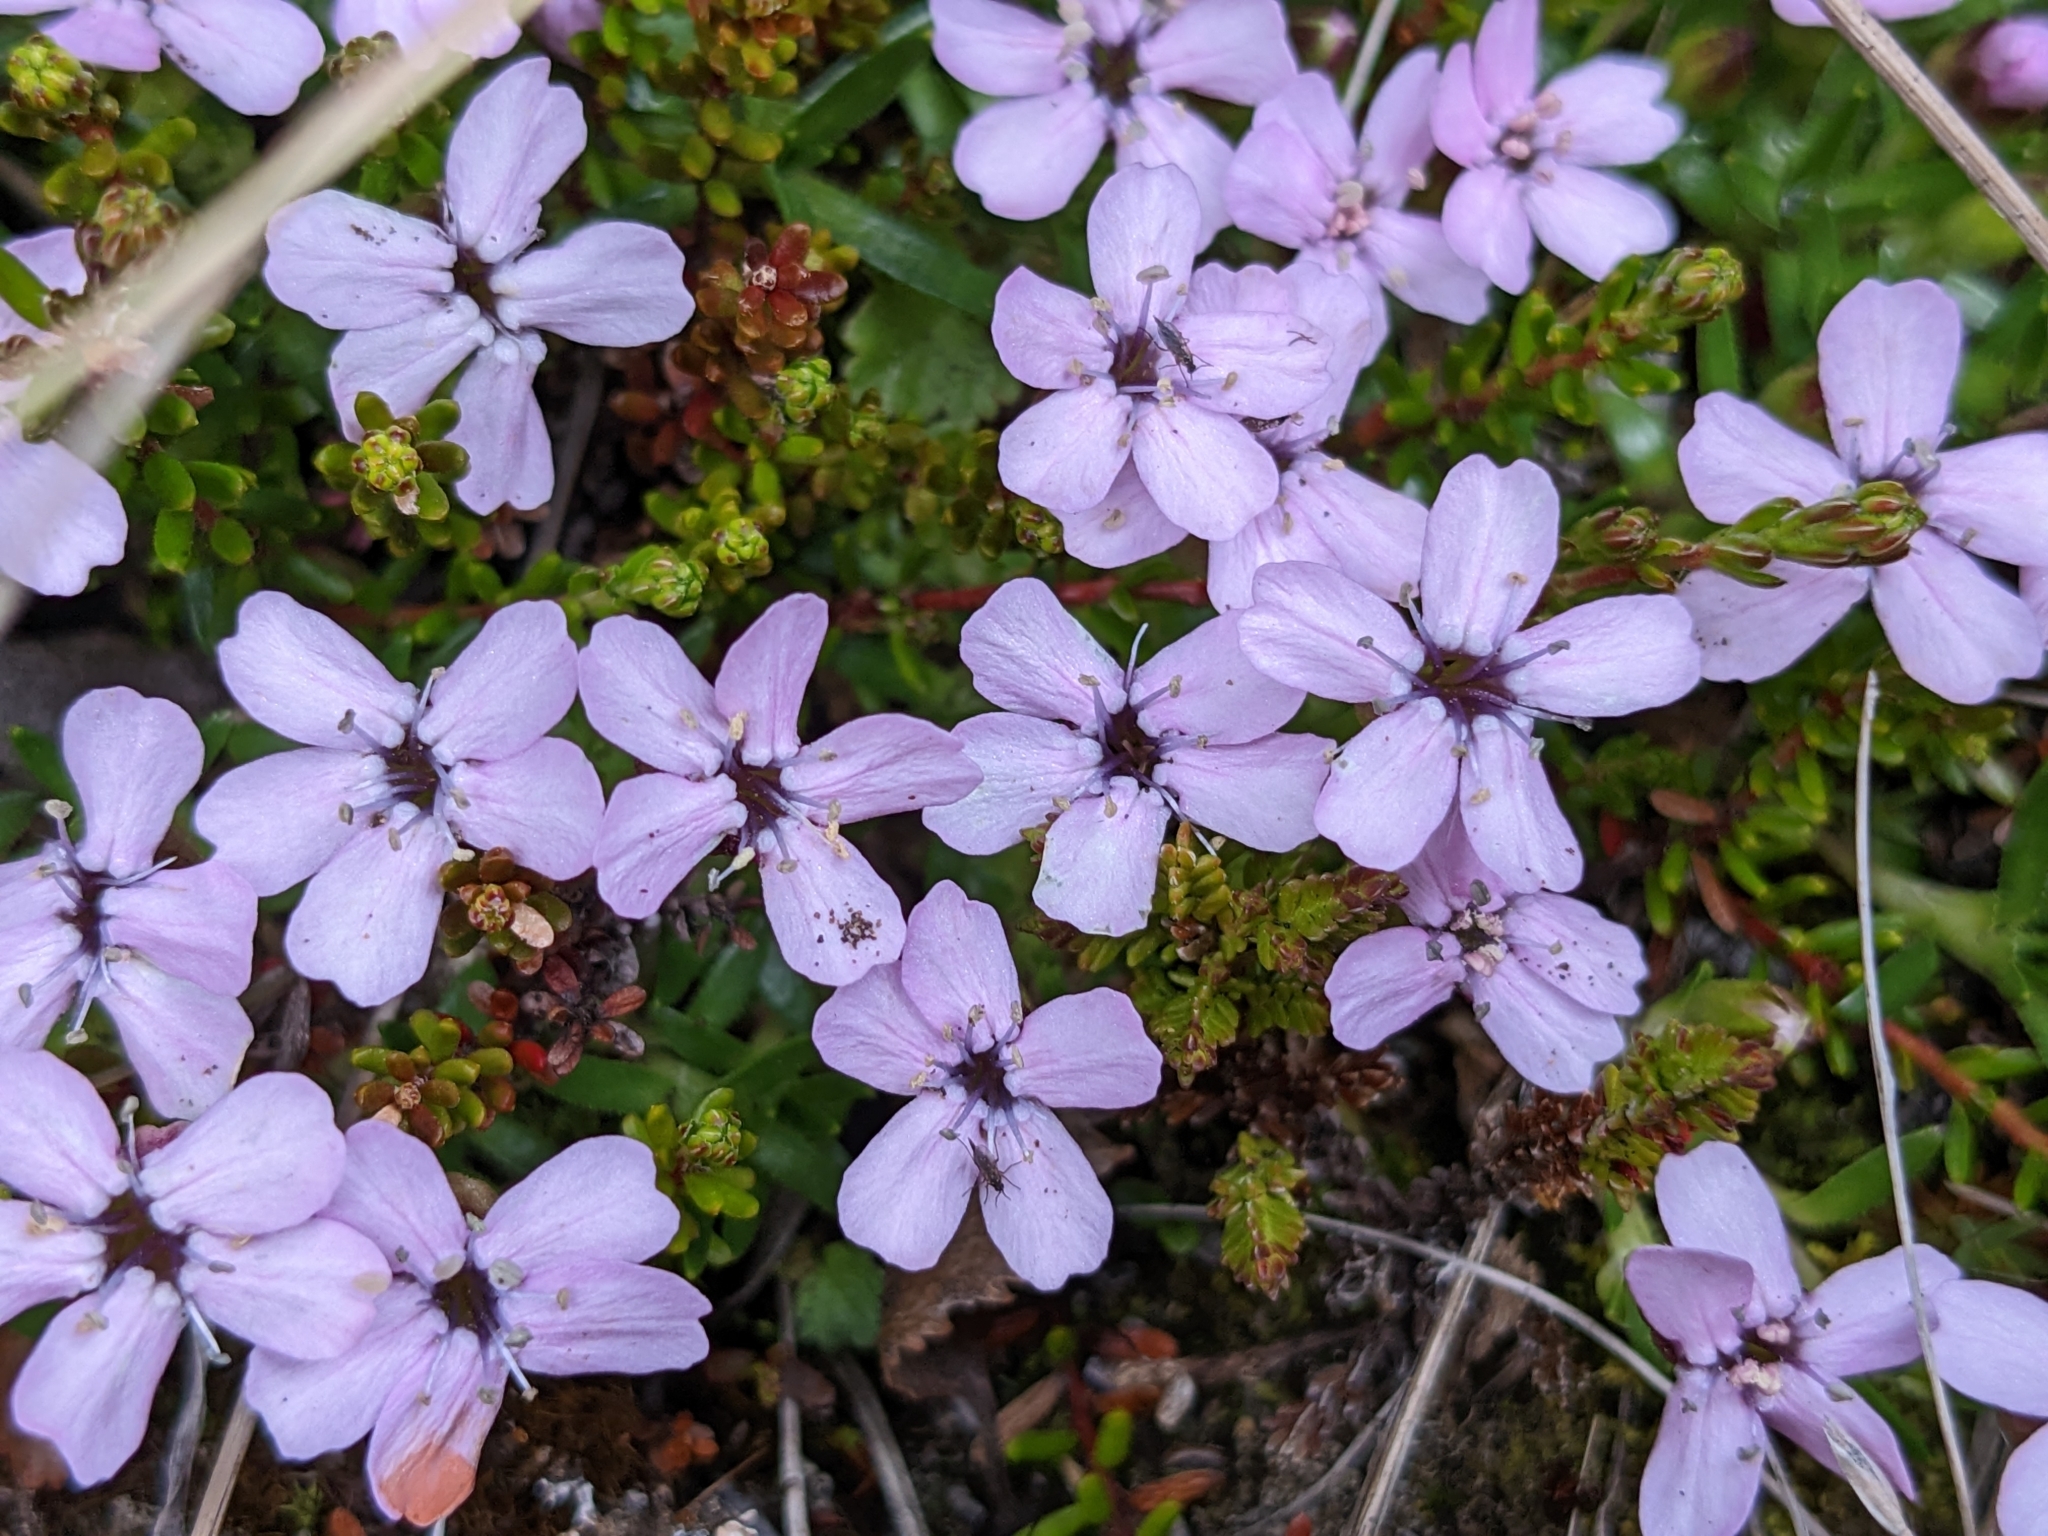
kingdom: Plantae
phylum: Tracheophyta
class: Magnoliopsida
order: Caryophyllales
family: Caryophyllaceae
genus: Silene
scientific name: Silene acaulis
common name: Moss campion
